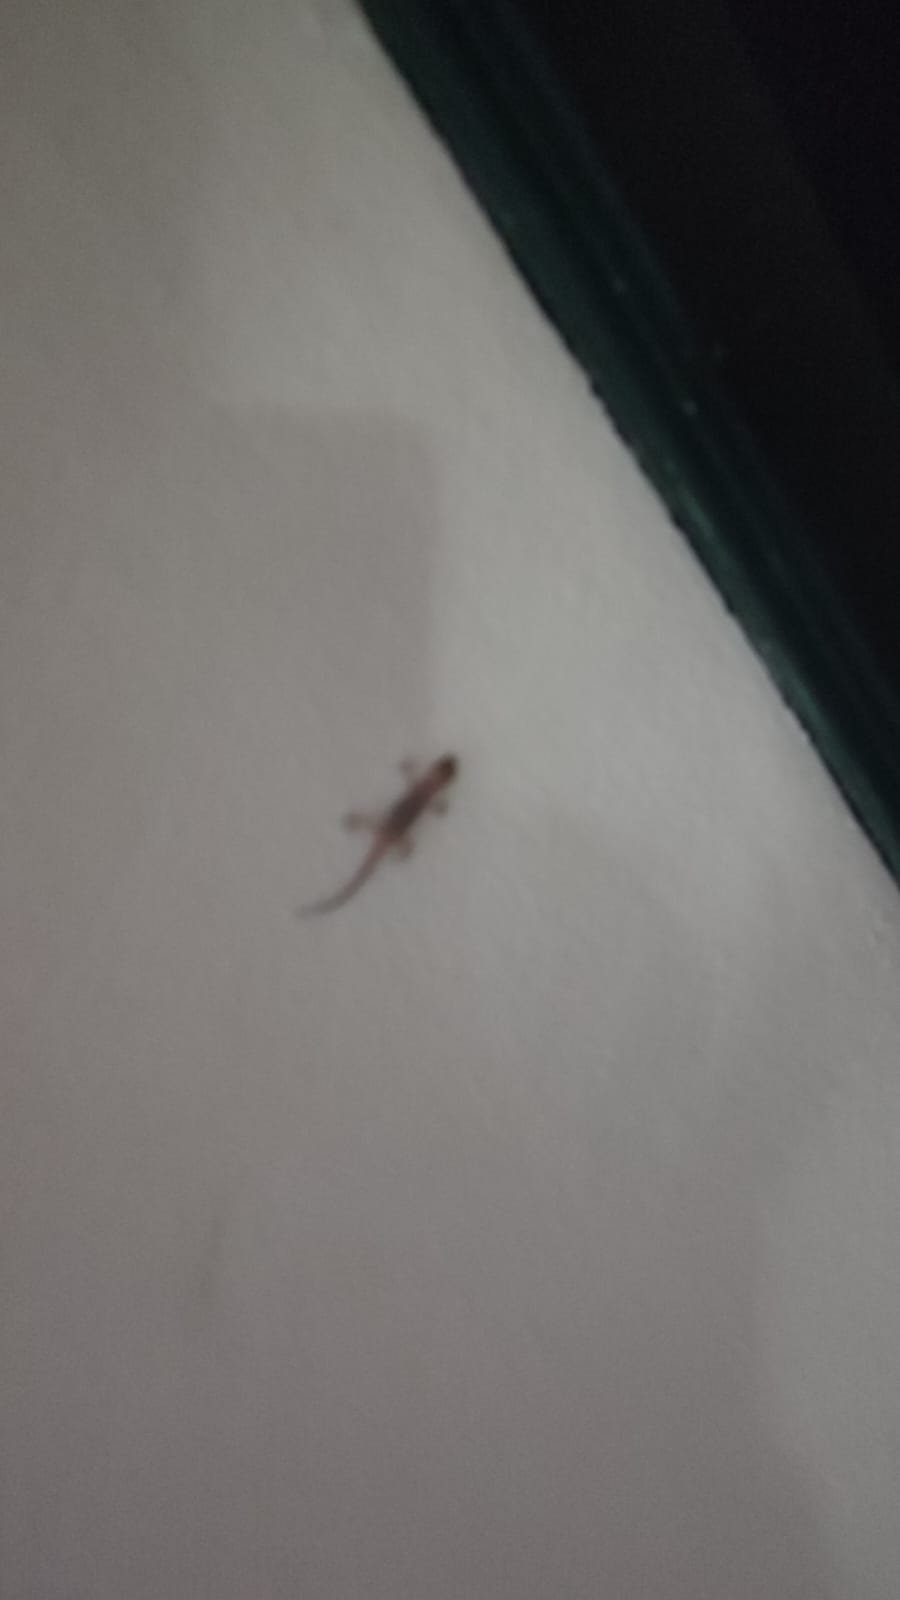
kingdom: Animalia
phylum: Chordata
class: Squamata
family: Gekkonidae
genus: Hemidactylus
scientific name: Hemidactylus turcicus
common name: Turkish gecko
